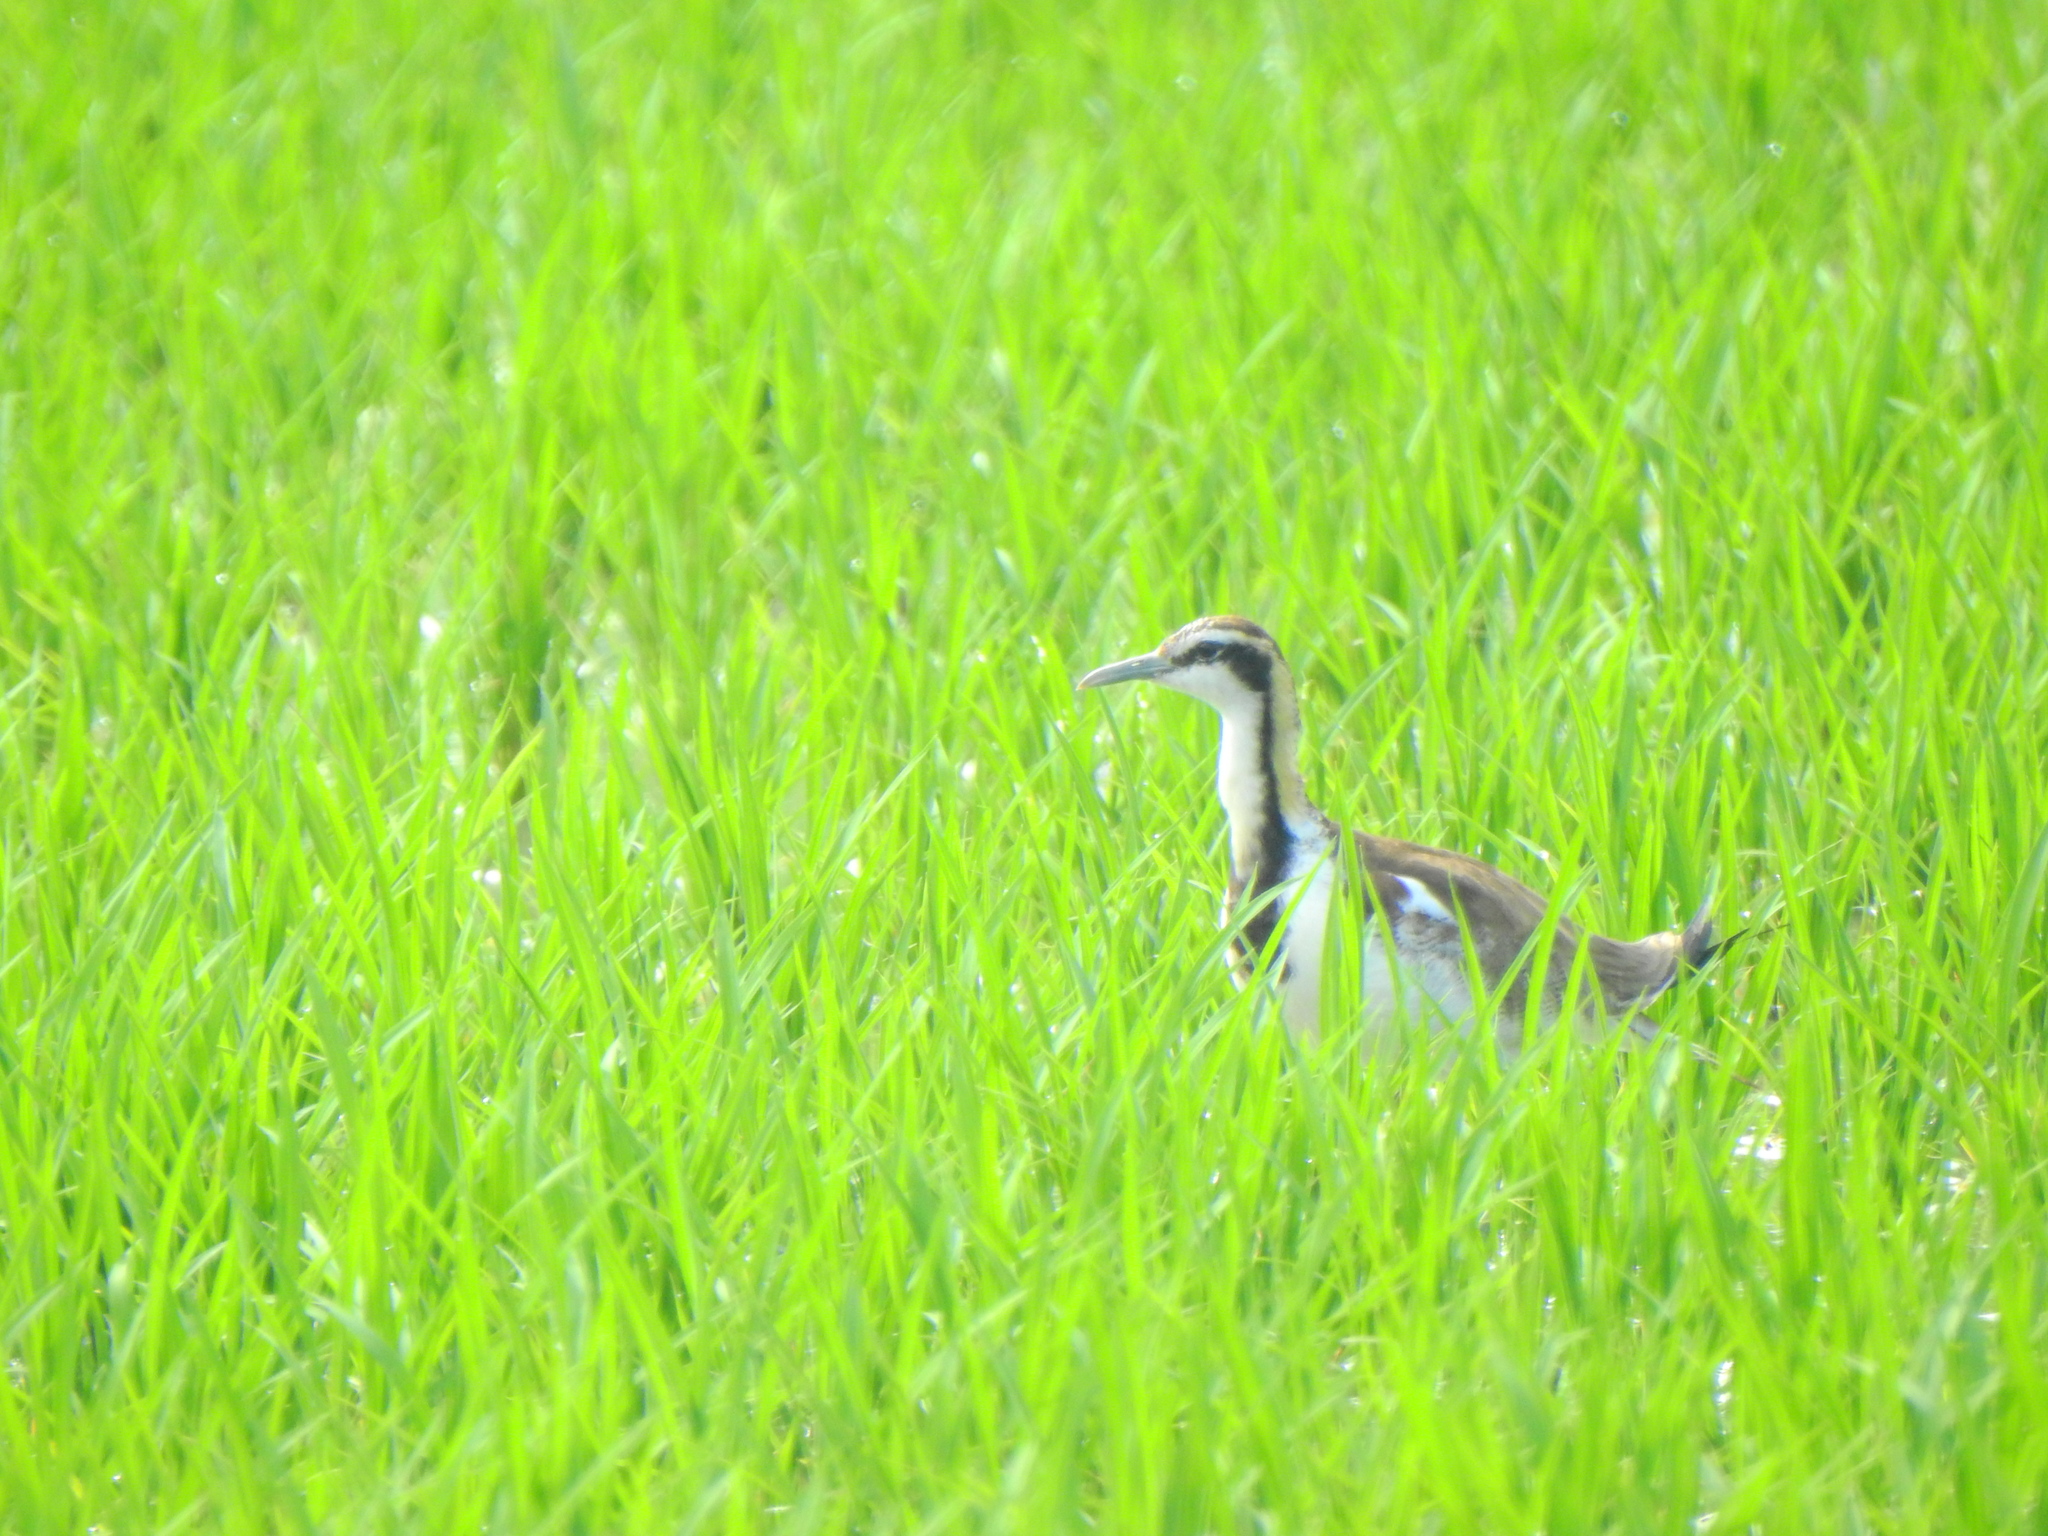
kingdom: Animalia
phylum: Chordata
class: Aves
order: Charadriiformes
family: Jacanidae
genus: Hydrophasianus
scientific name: Hydrophasianus chirurgus
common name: Pheasant-tailed jacana
